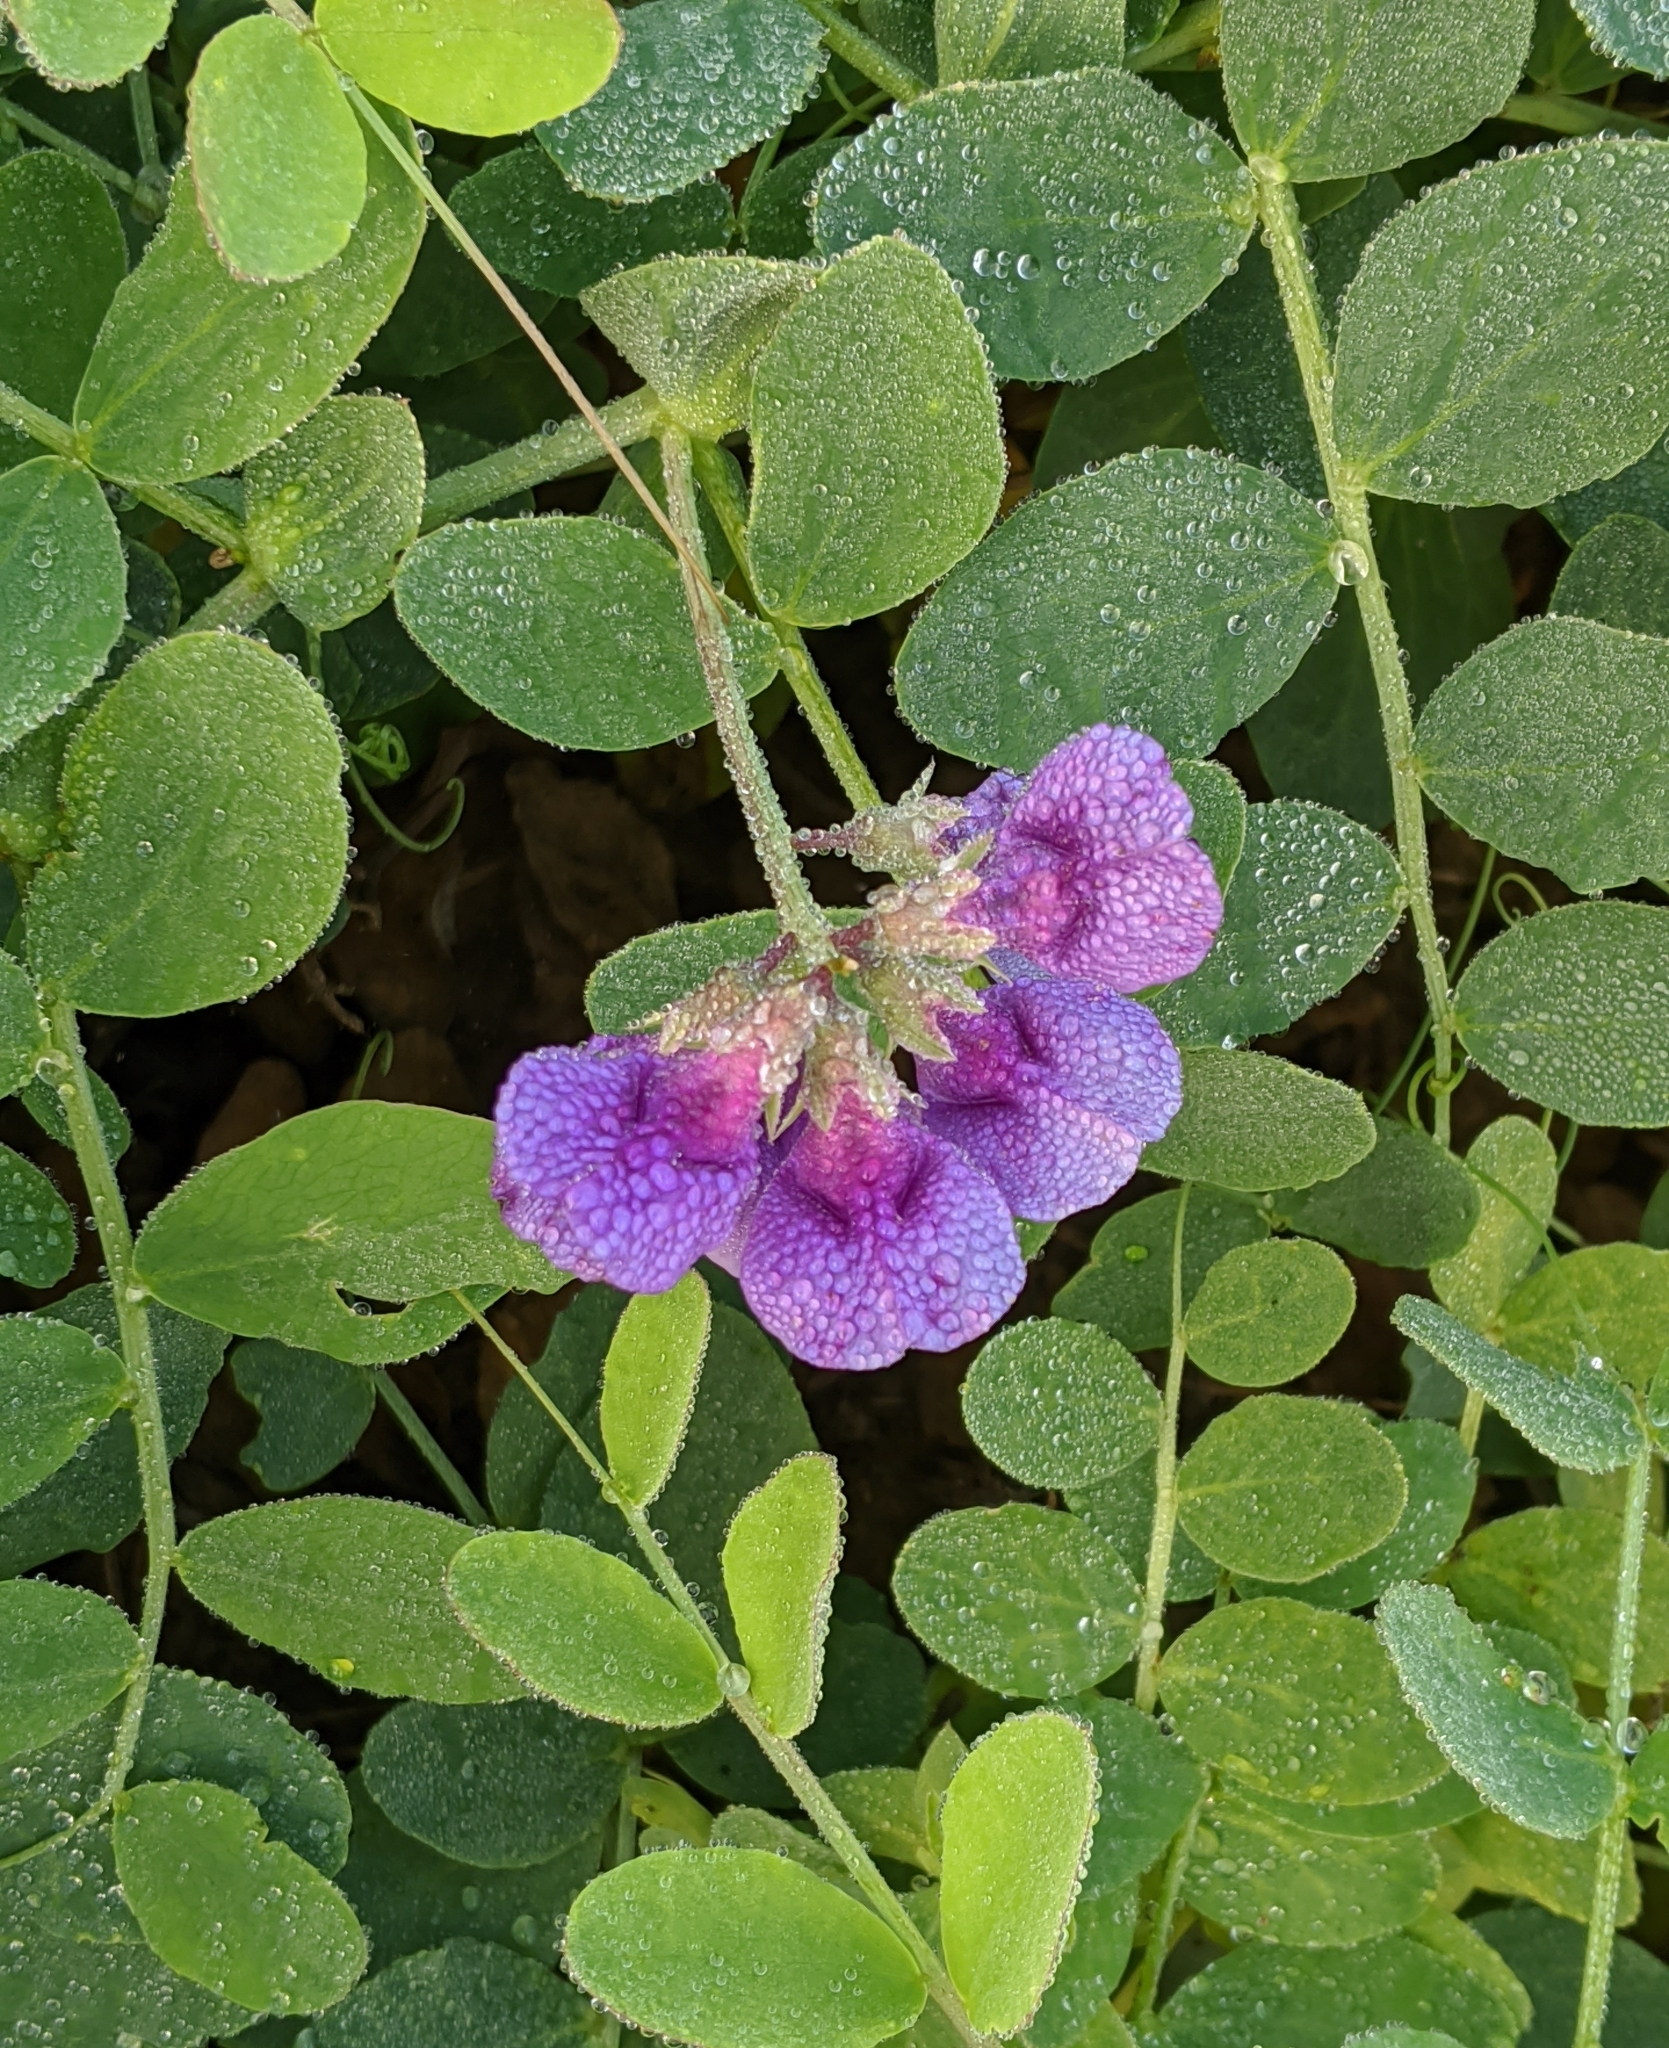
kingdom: Plantae
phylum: Tracheophyta
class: Magnoliopsida
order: Fabales
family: Fabaceae
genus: Lathyrus
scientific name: Lathyrus japonicus
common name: Sea pea
